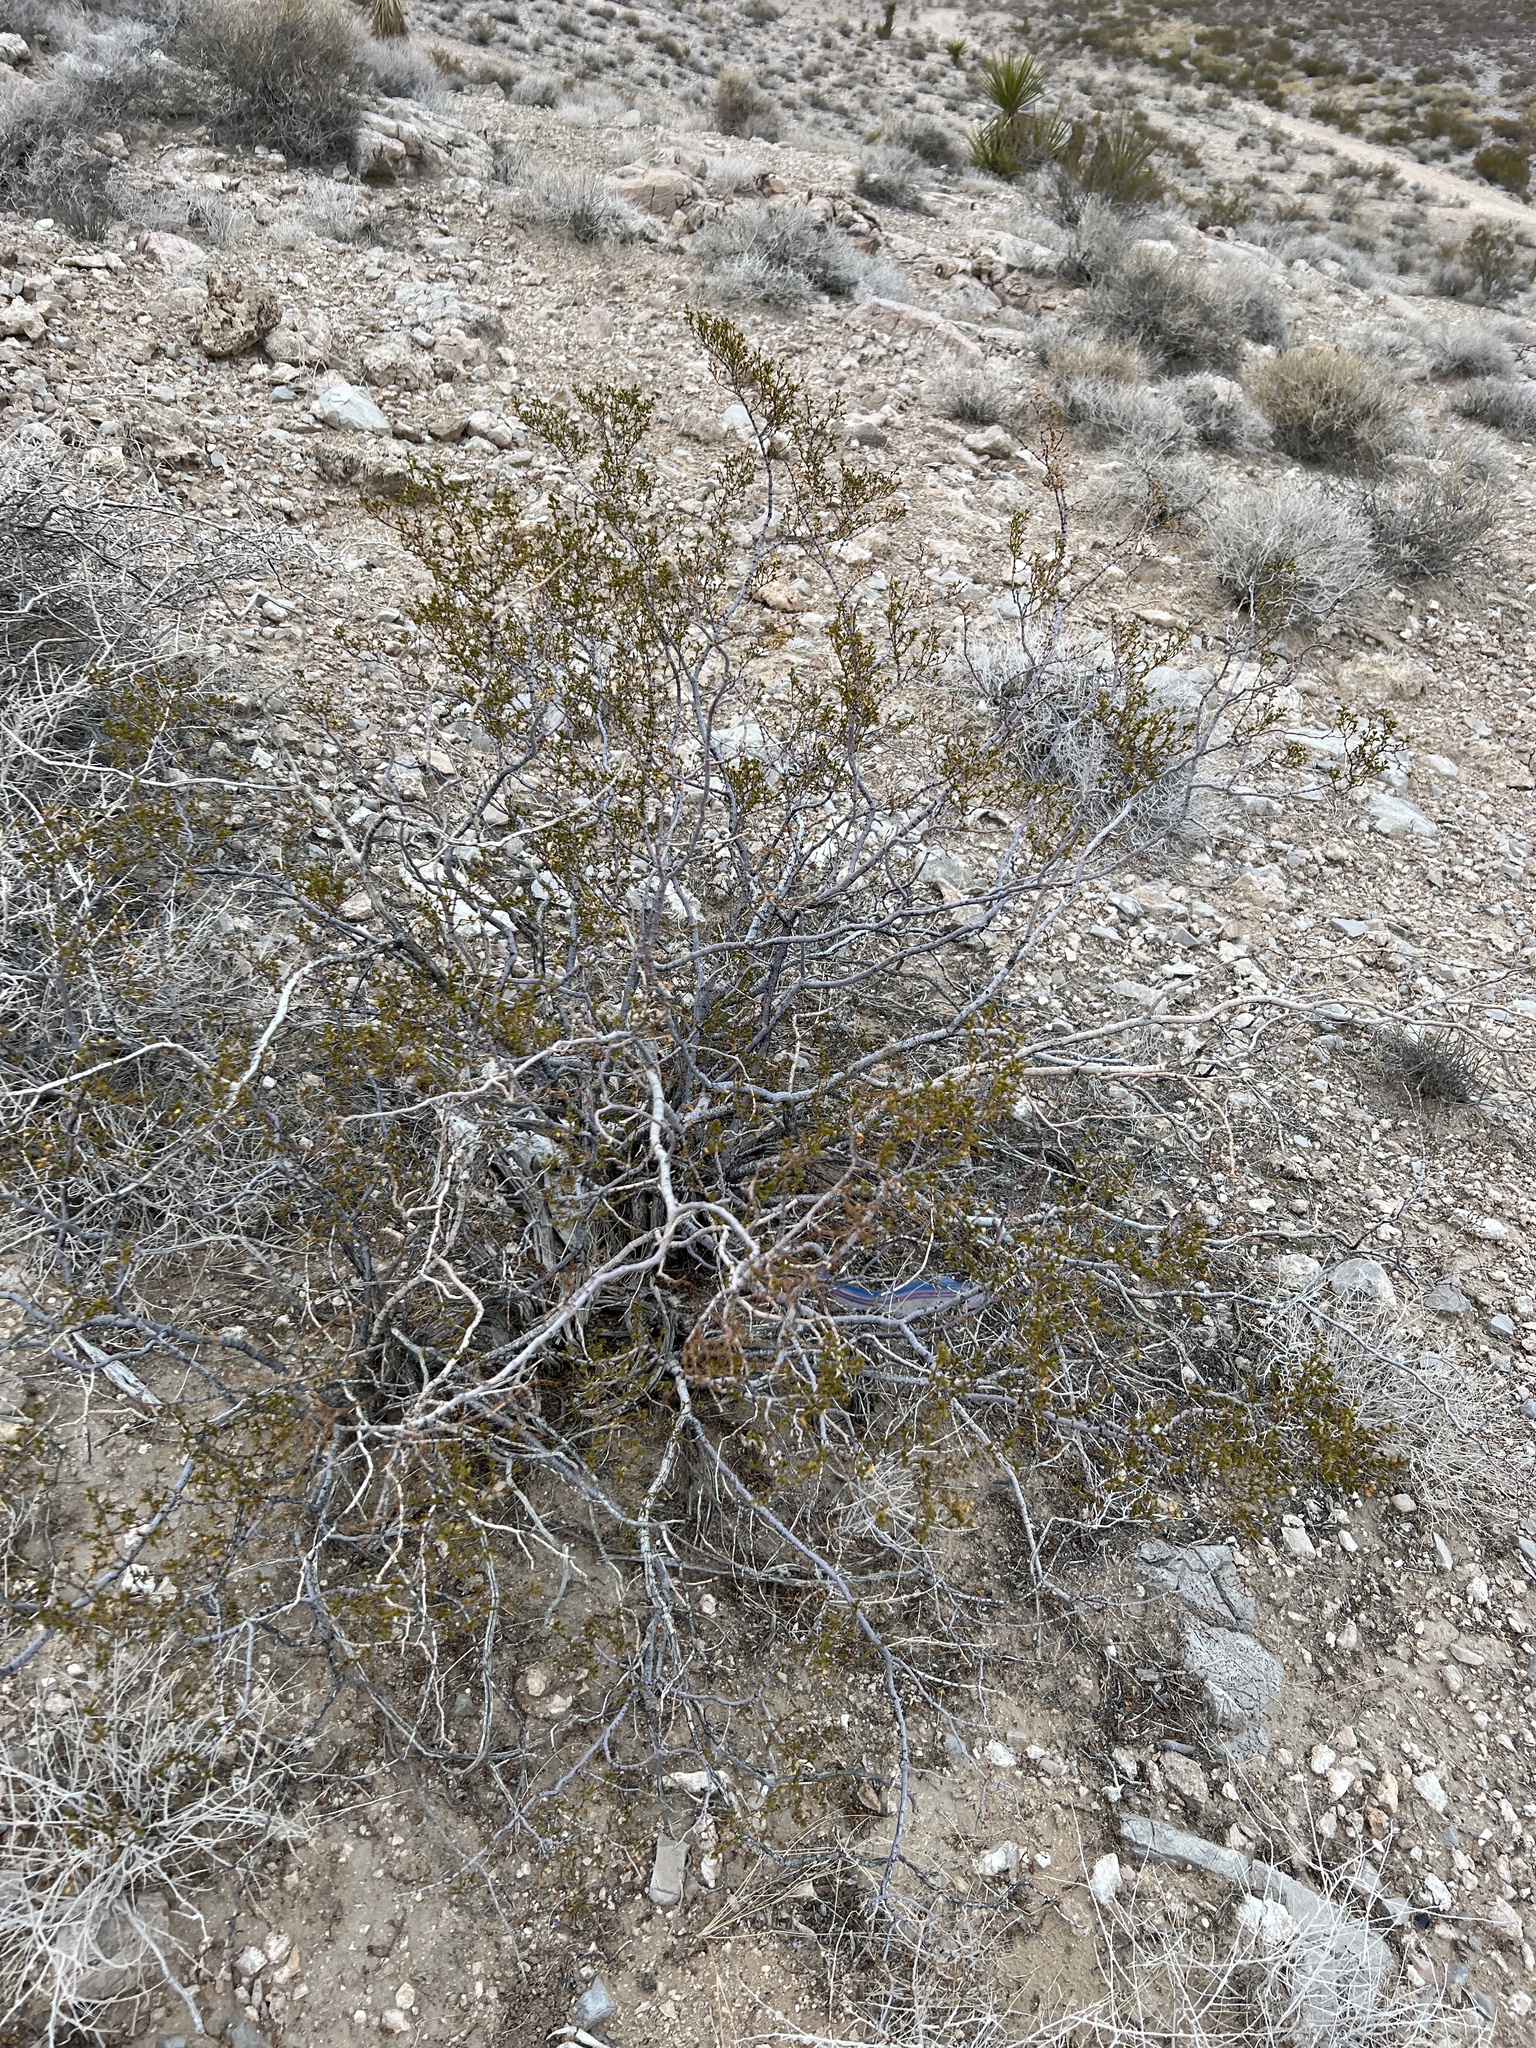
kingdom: Plantae
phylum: Tracheophyta
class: Magnoliopsida
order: Zygophyllales
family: Zygophyllaceae
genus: Larrea
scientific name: Larrea tridentata
